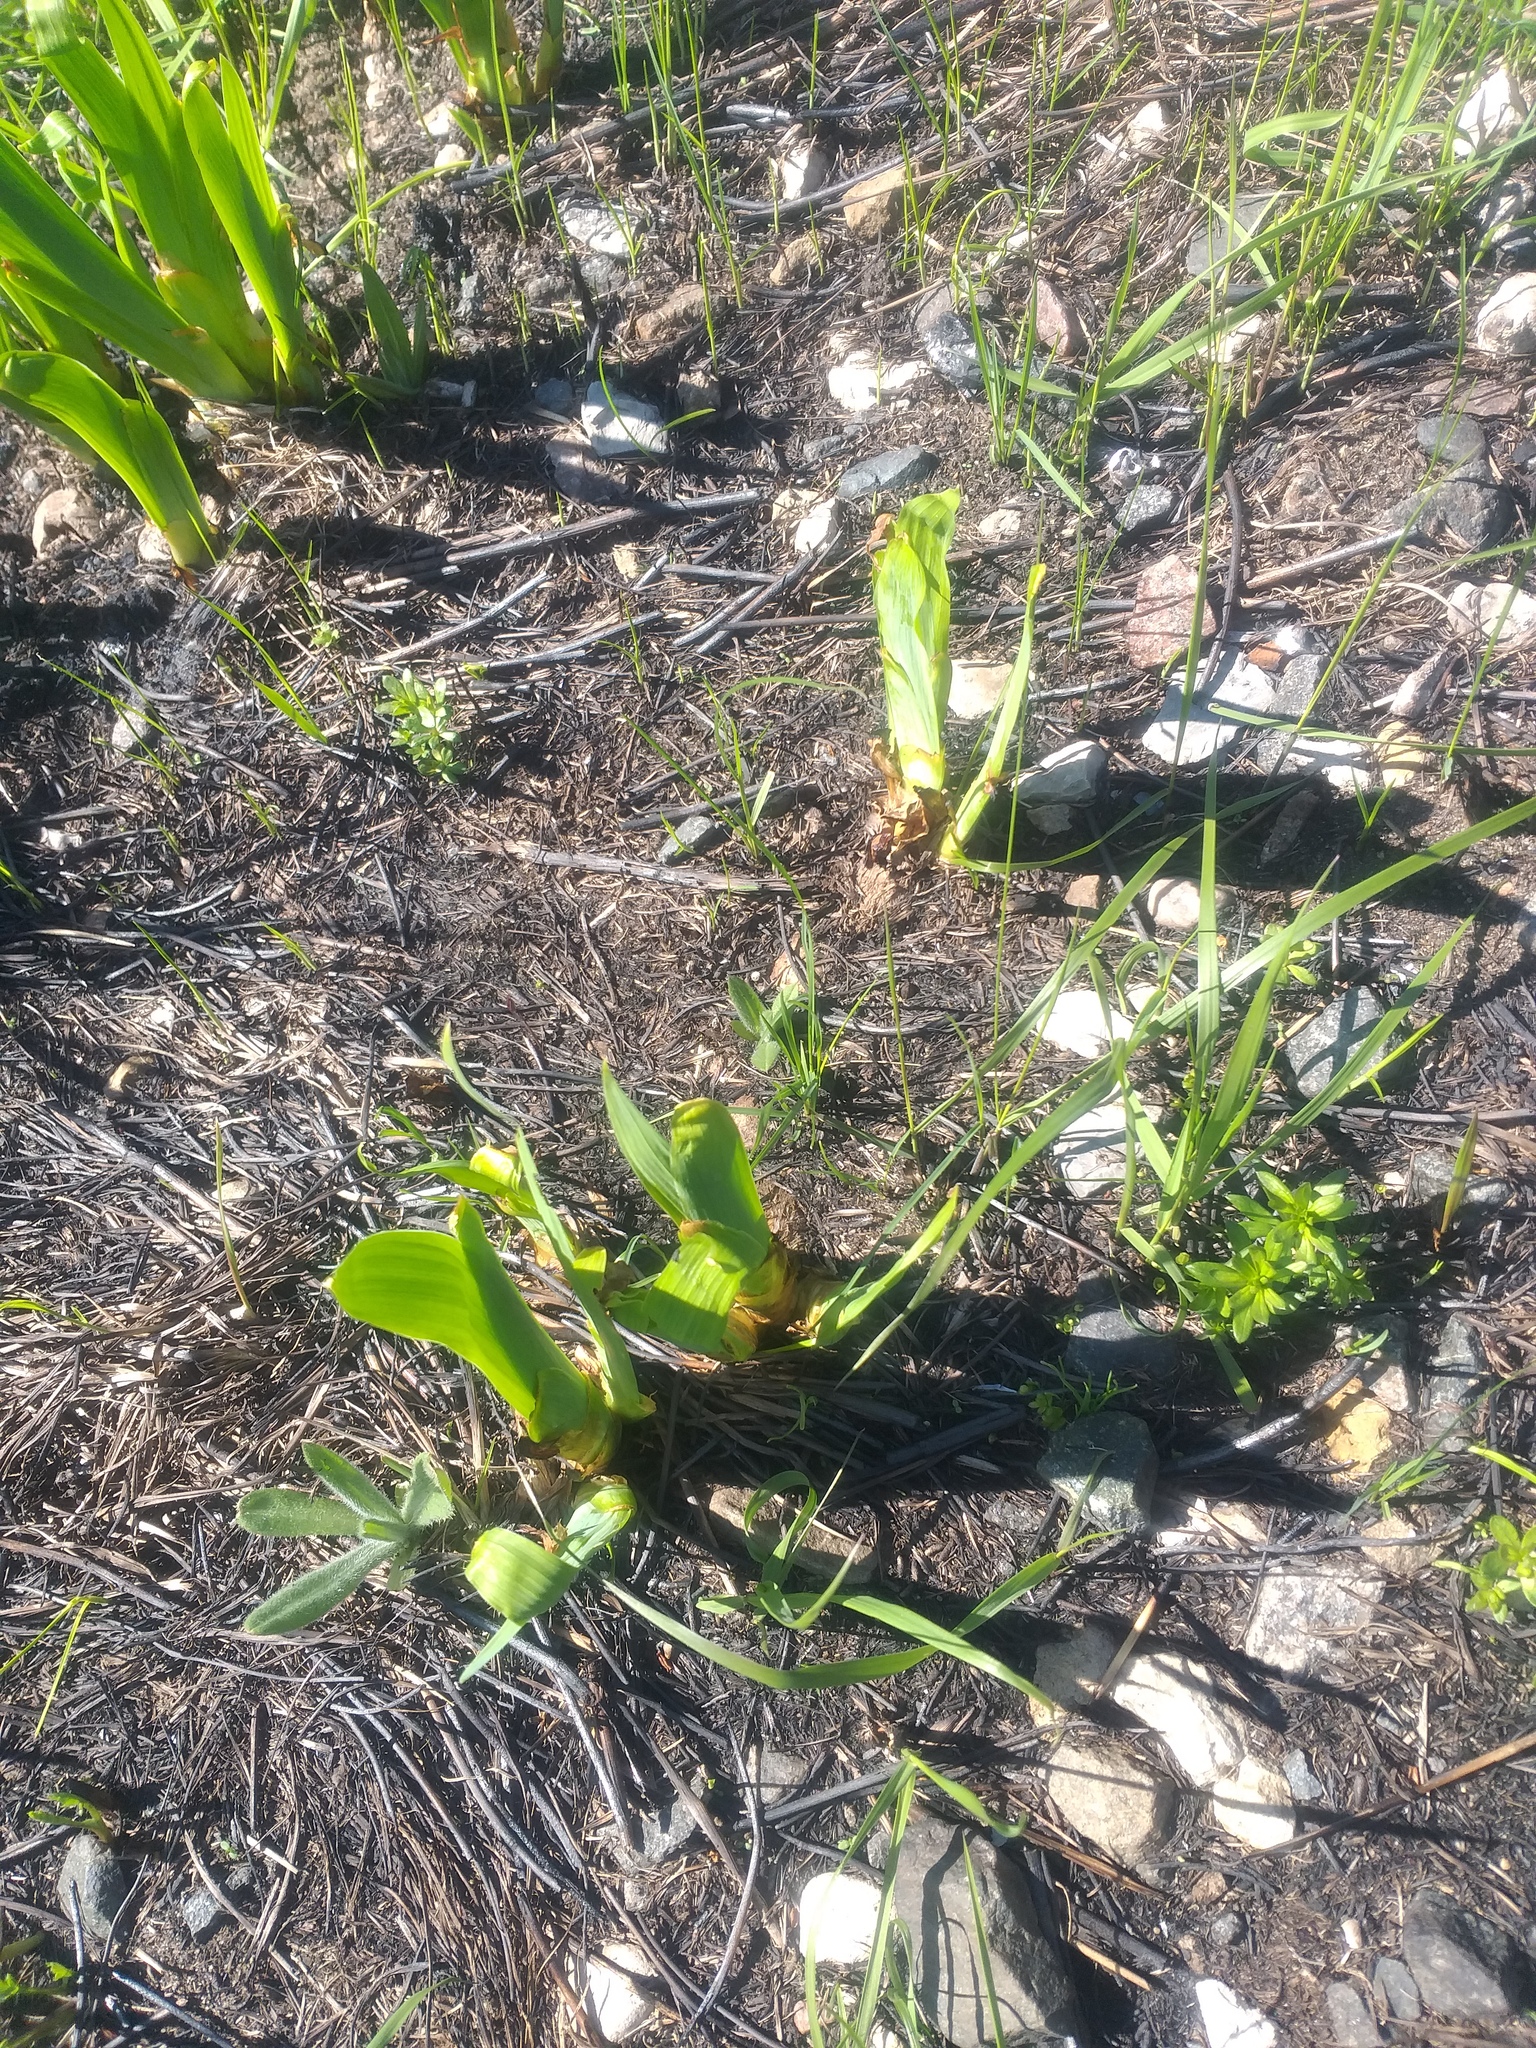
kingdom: Plantae
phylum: Tracheophyta
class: Liliopsida
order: Asparagales
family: Iridaceae
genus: Iris
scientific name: Iris hybrida
